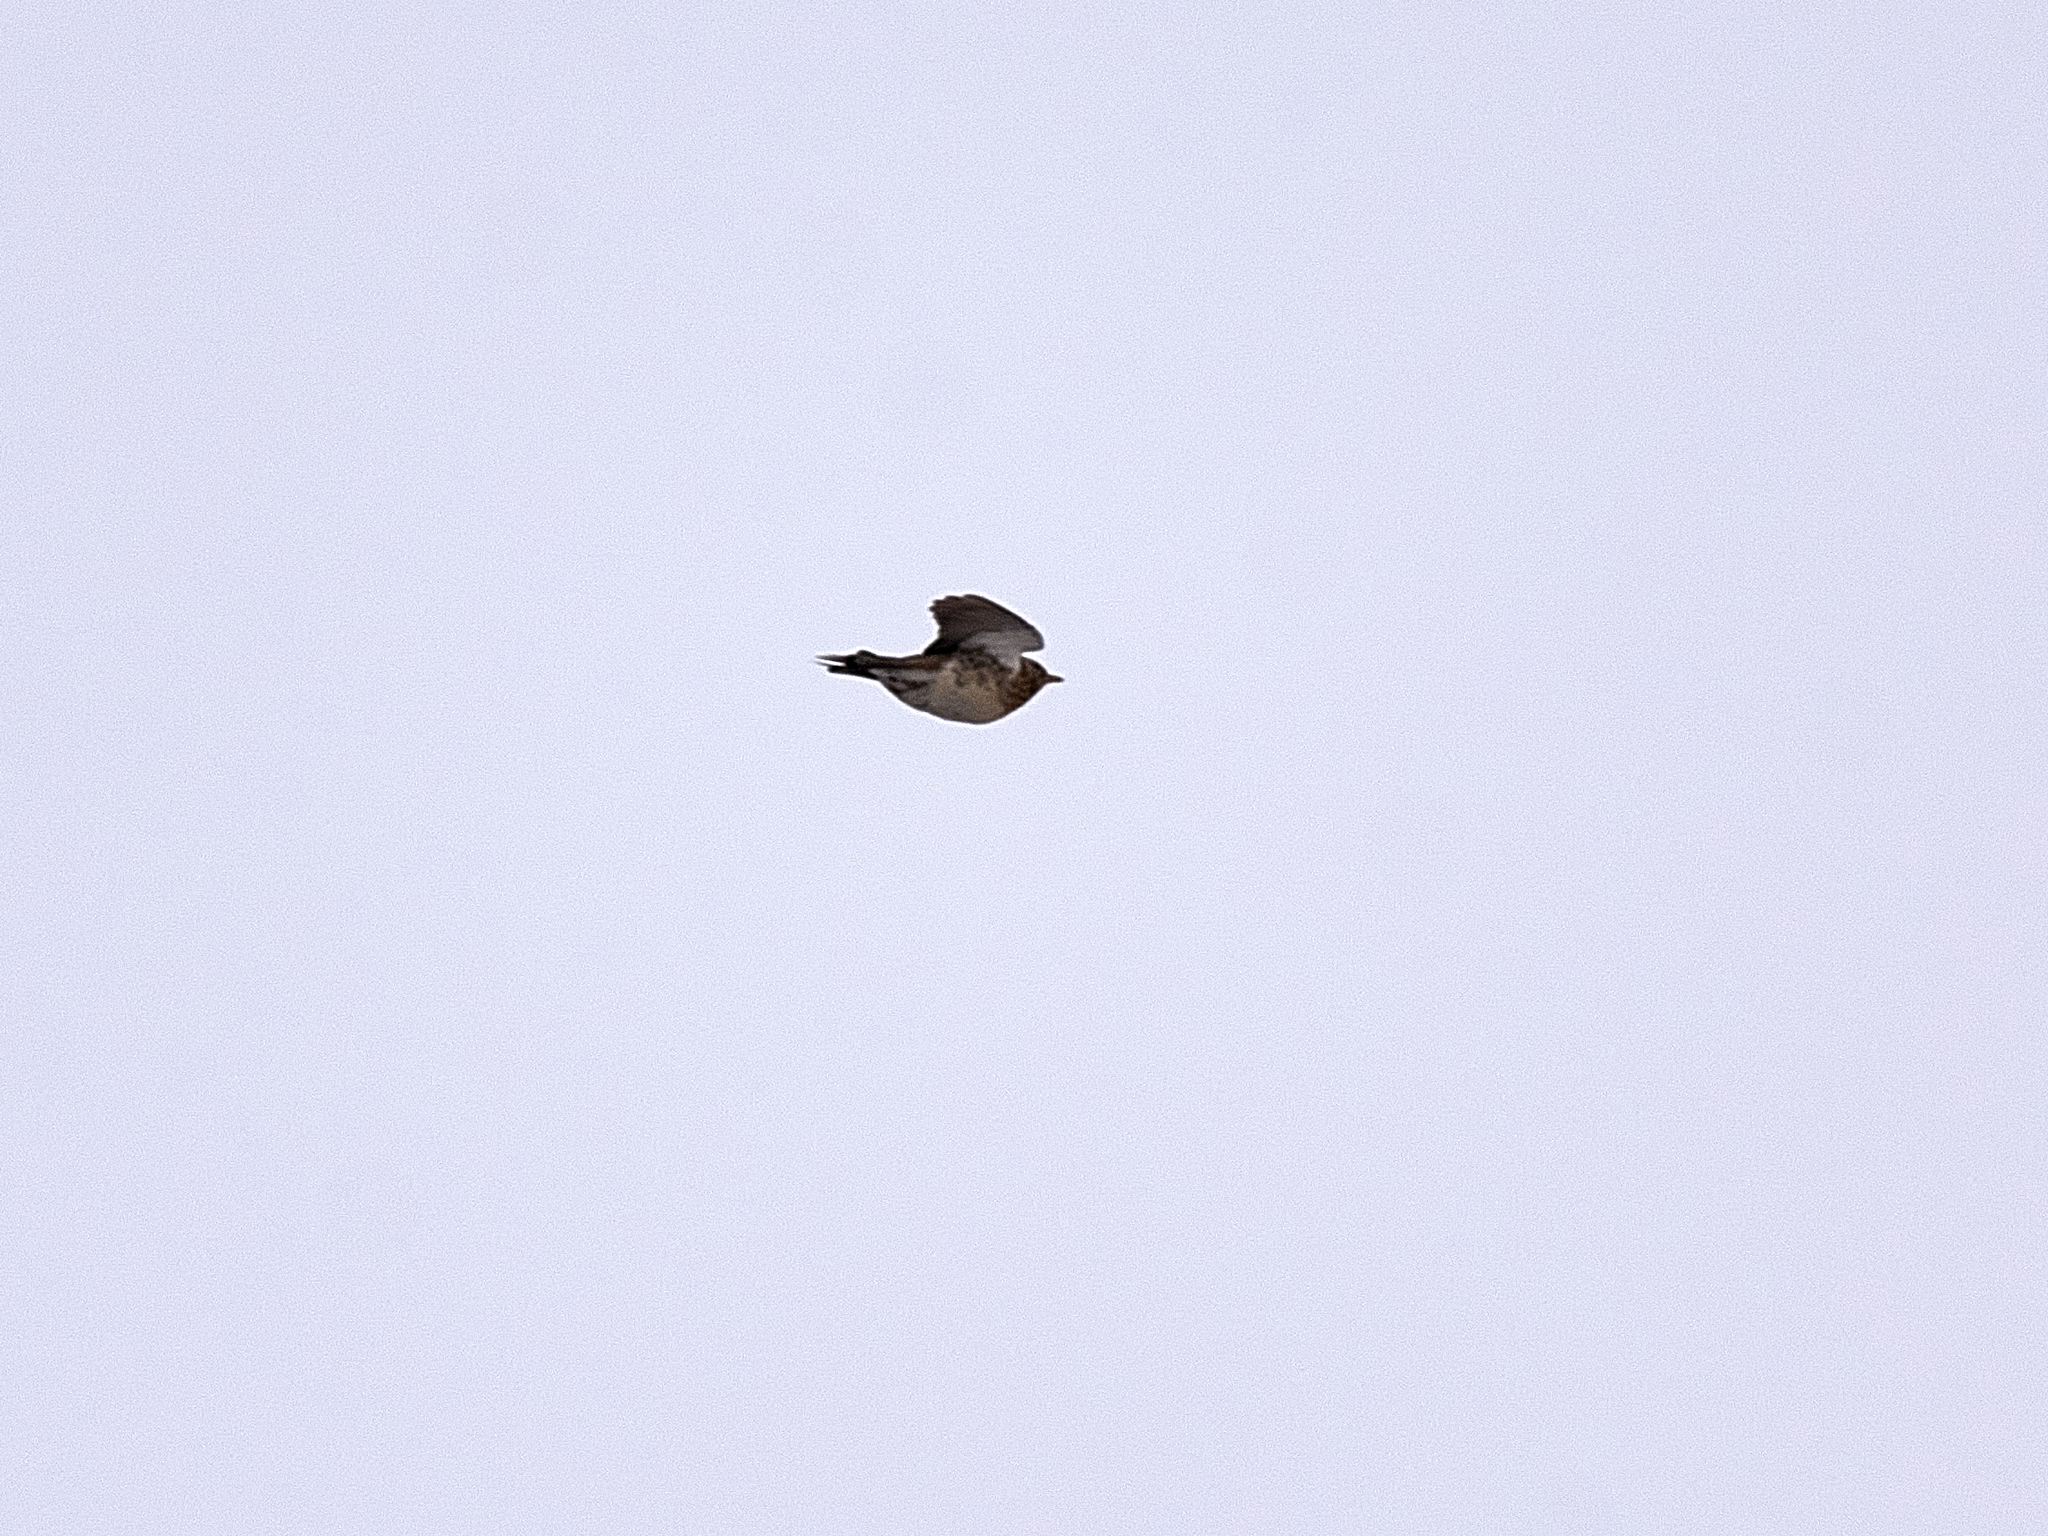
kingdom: Animalia
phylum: Chordata
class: Aves
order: Passeriformes
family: Turdidae
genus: Turdus
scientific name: Turdus pilaris
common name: Fieldfare
